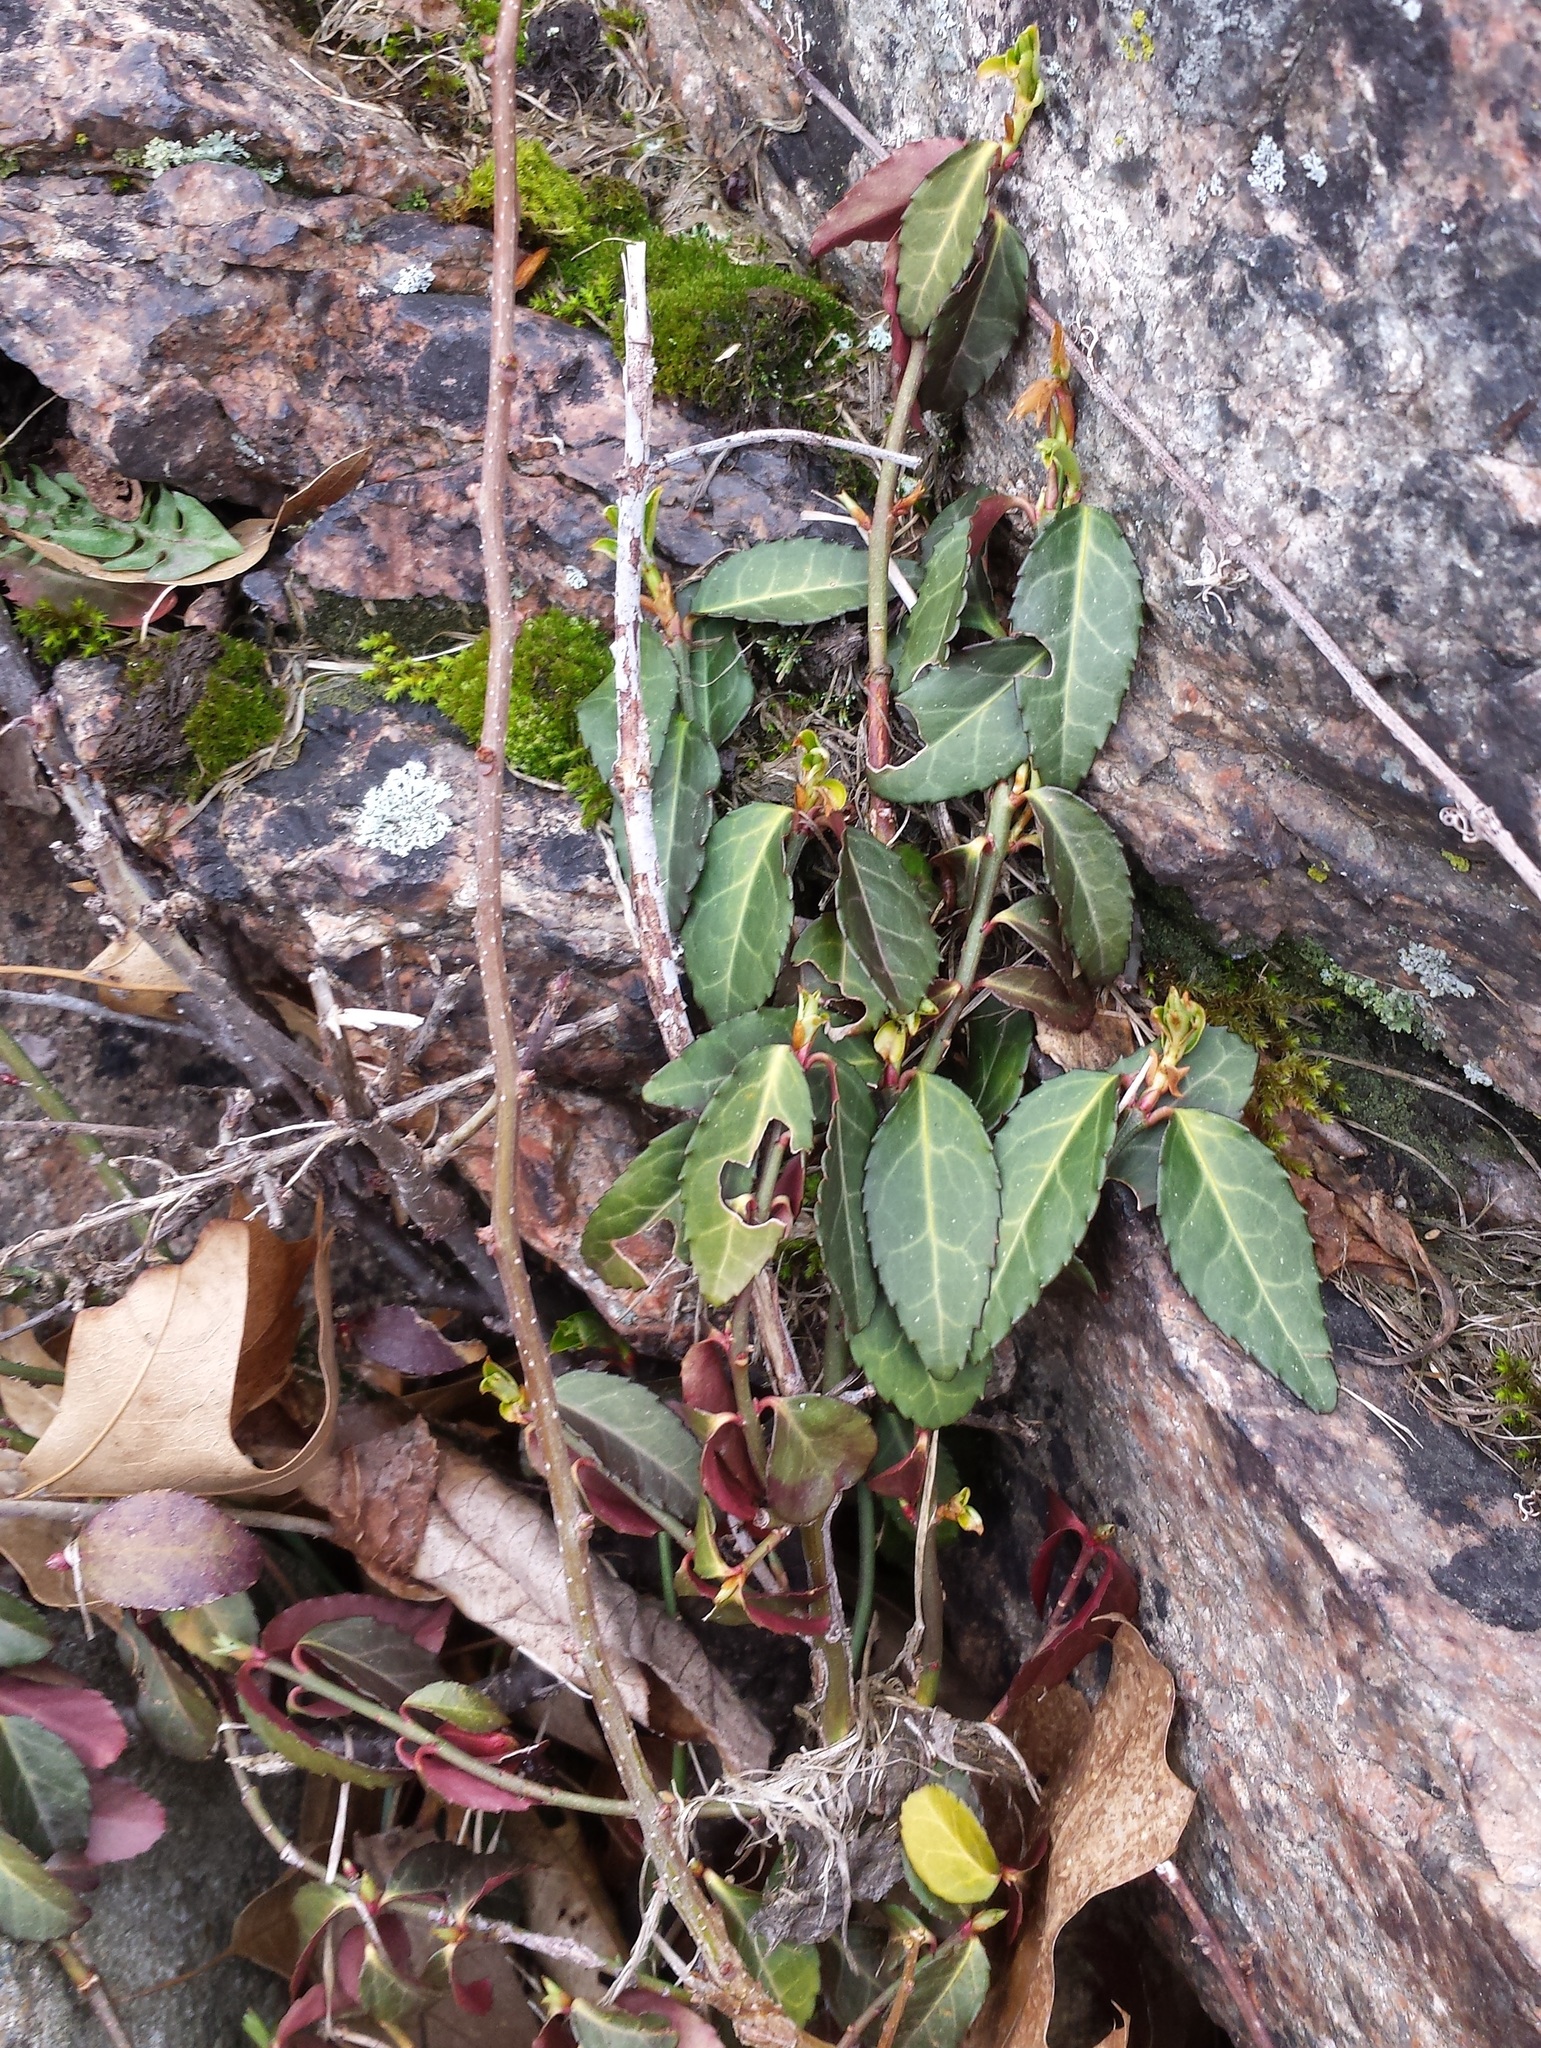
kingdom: Plantae
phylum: Tracheophyta
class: Magnoliopsida
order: Celastrales
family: Celastraceae
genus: Euonymus
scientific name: Euonymus fortunei
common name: Climbing euonymus
